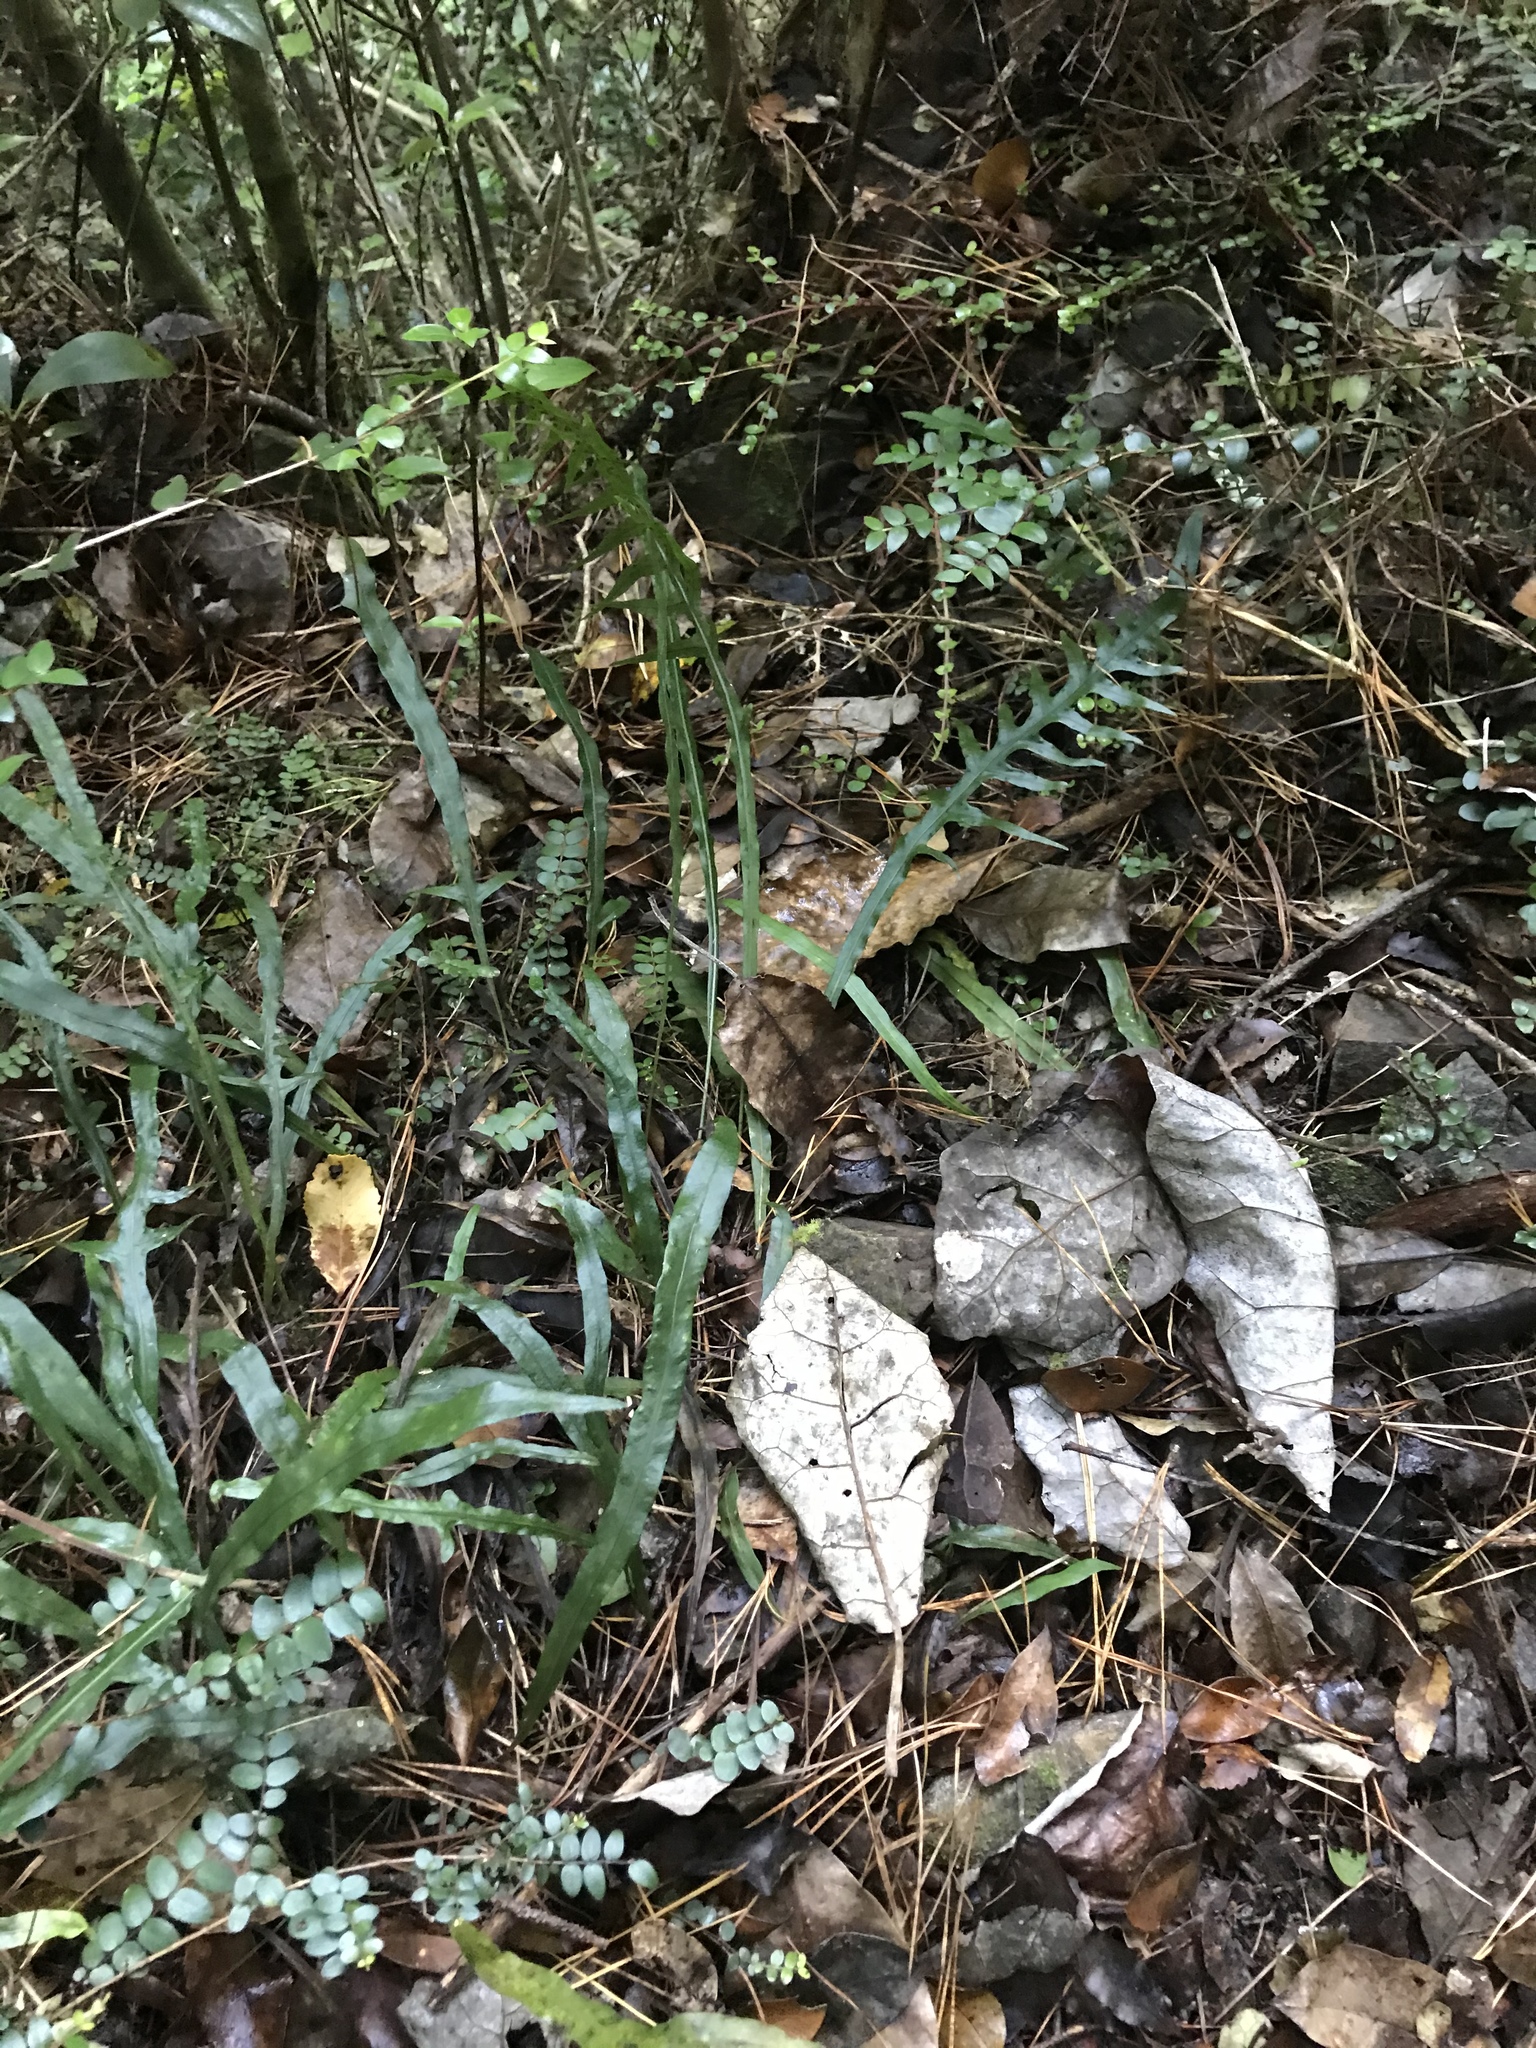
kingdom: Plantae
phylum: Tracheophyta
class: Polypodiopsida
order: Polypodiales
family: Polypodiaceae
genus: Lecanopteris
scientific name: Lecanopteris scandens
